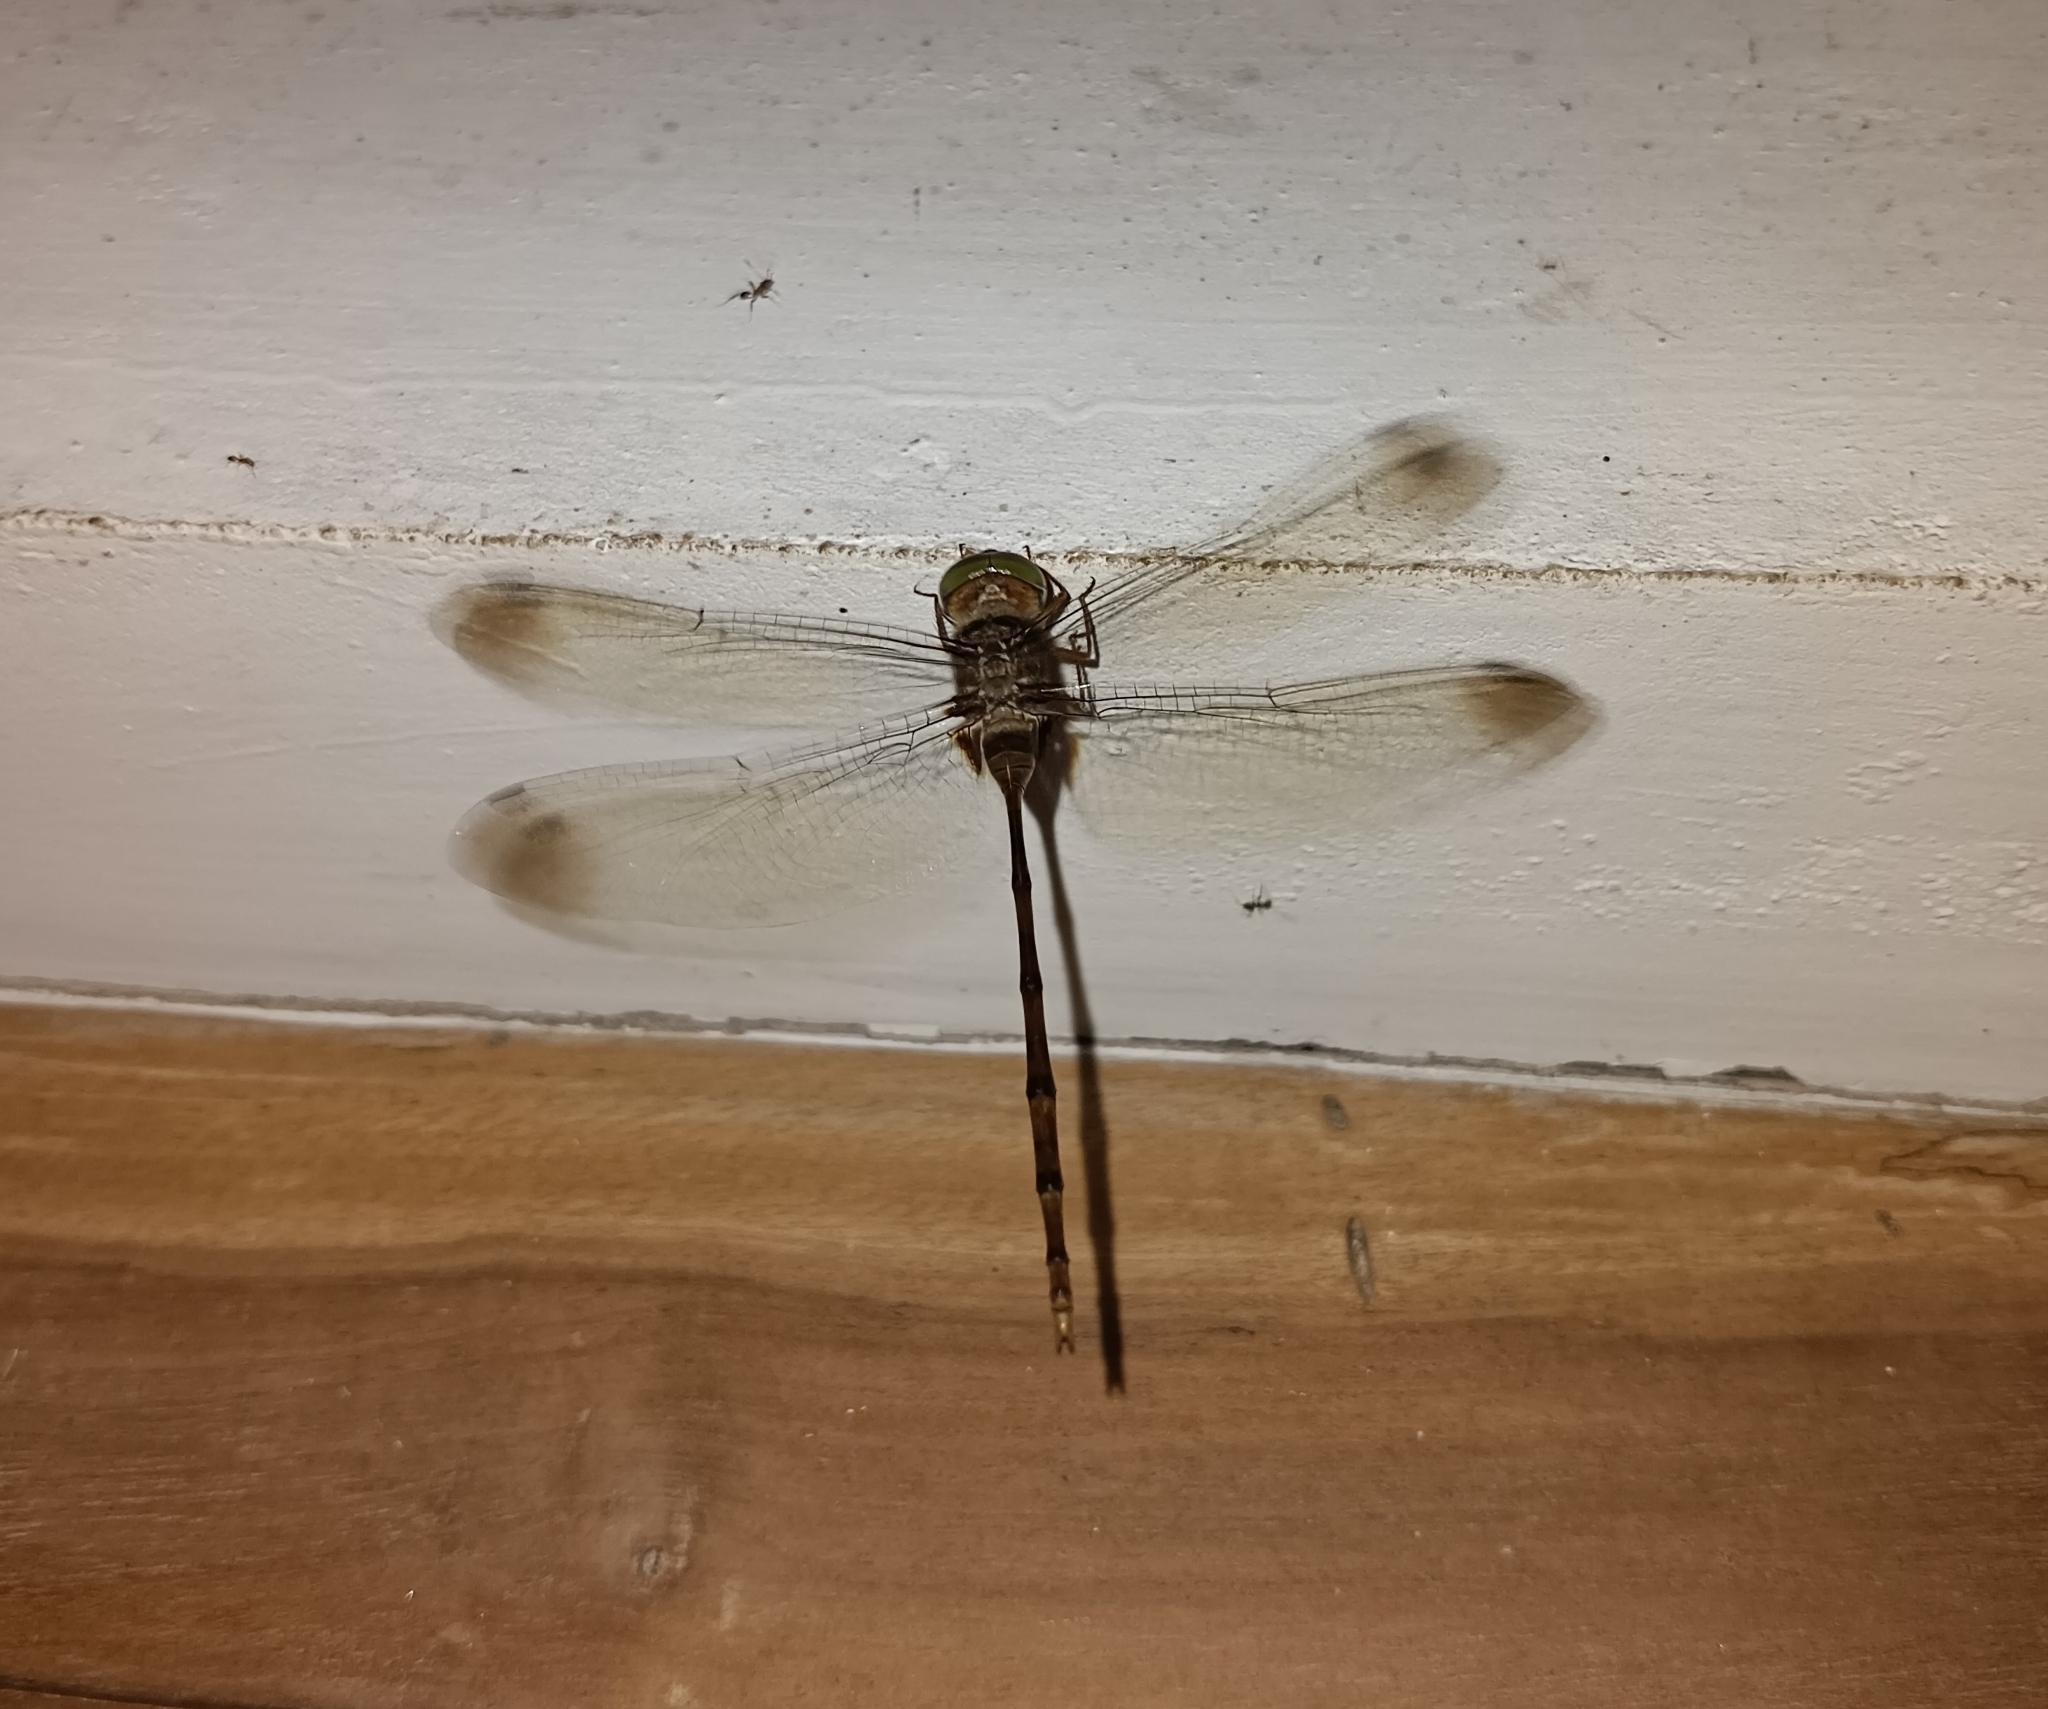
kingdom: Animalia
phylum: Arthropoda
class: Insecta
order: Odonata
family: Libellulidae
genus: Zyxomma
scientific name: Zyxomma petiolatum
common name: Dingy dusk-darter
